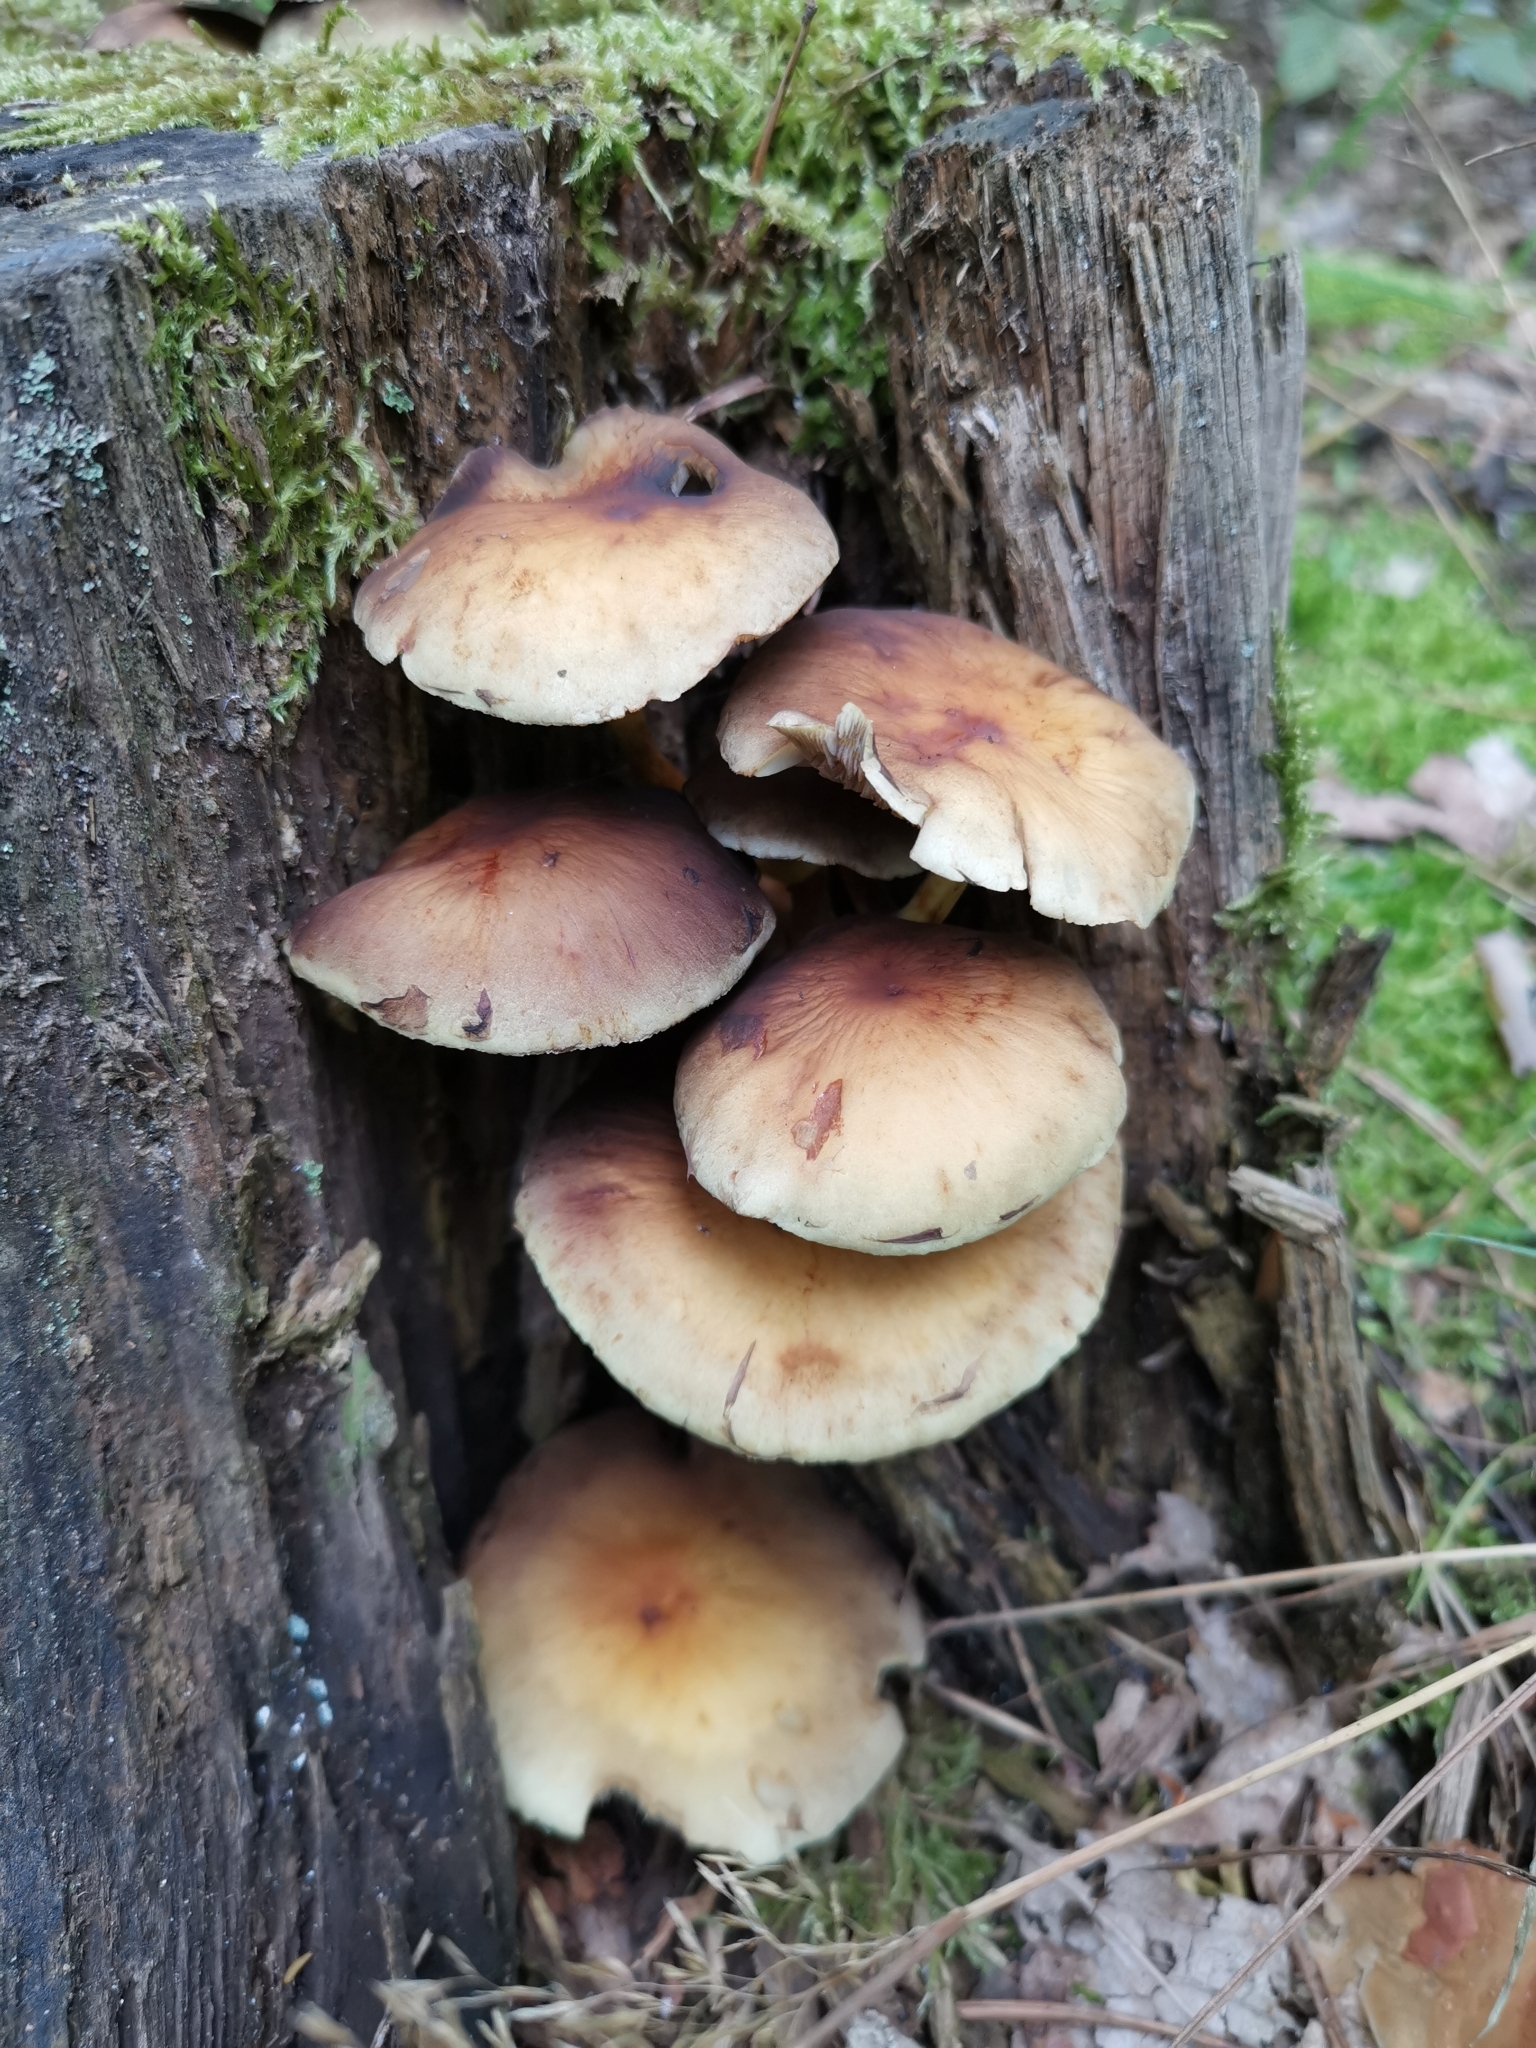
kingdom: Fungi
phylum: Basidiomycota
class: Agaricomycetes
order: Agaricales
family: Strophariaceae
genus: Hypholoma
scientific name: Hypholoma fasciculare
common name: Sulphur tuft
